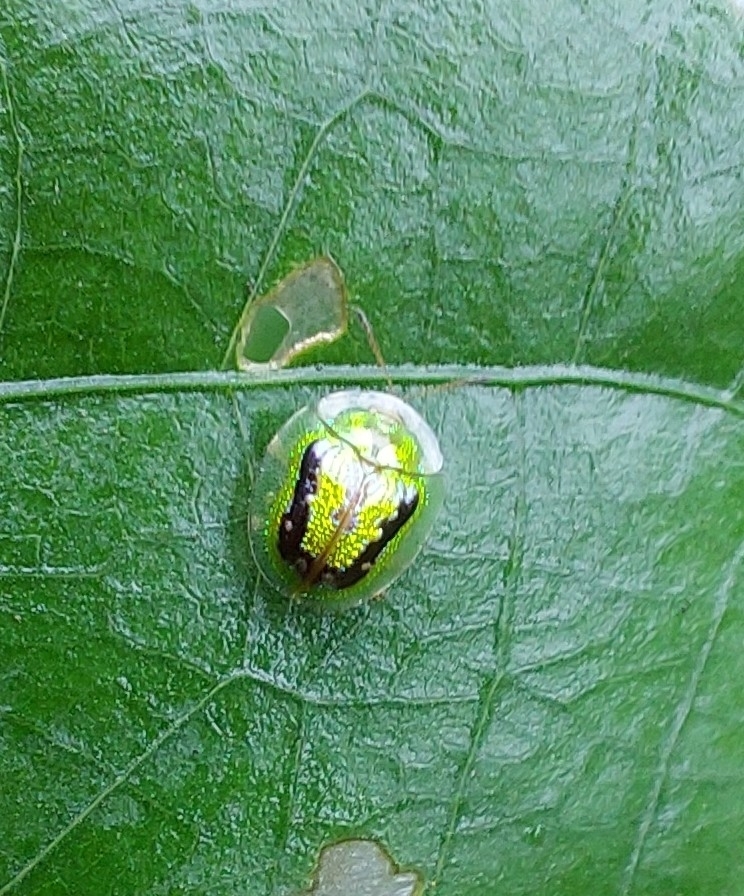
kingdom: Animalia
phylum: Arthropoda
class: Insecta
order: Coleoptera
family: Chrysomelidae
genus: Cassida
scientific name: Cassida circumdata
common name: Tortoise beetle
